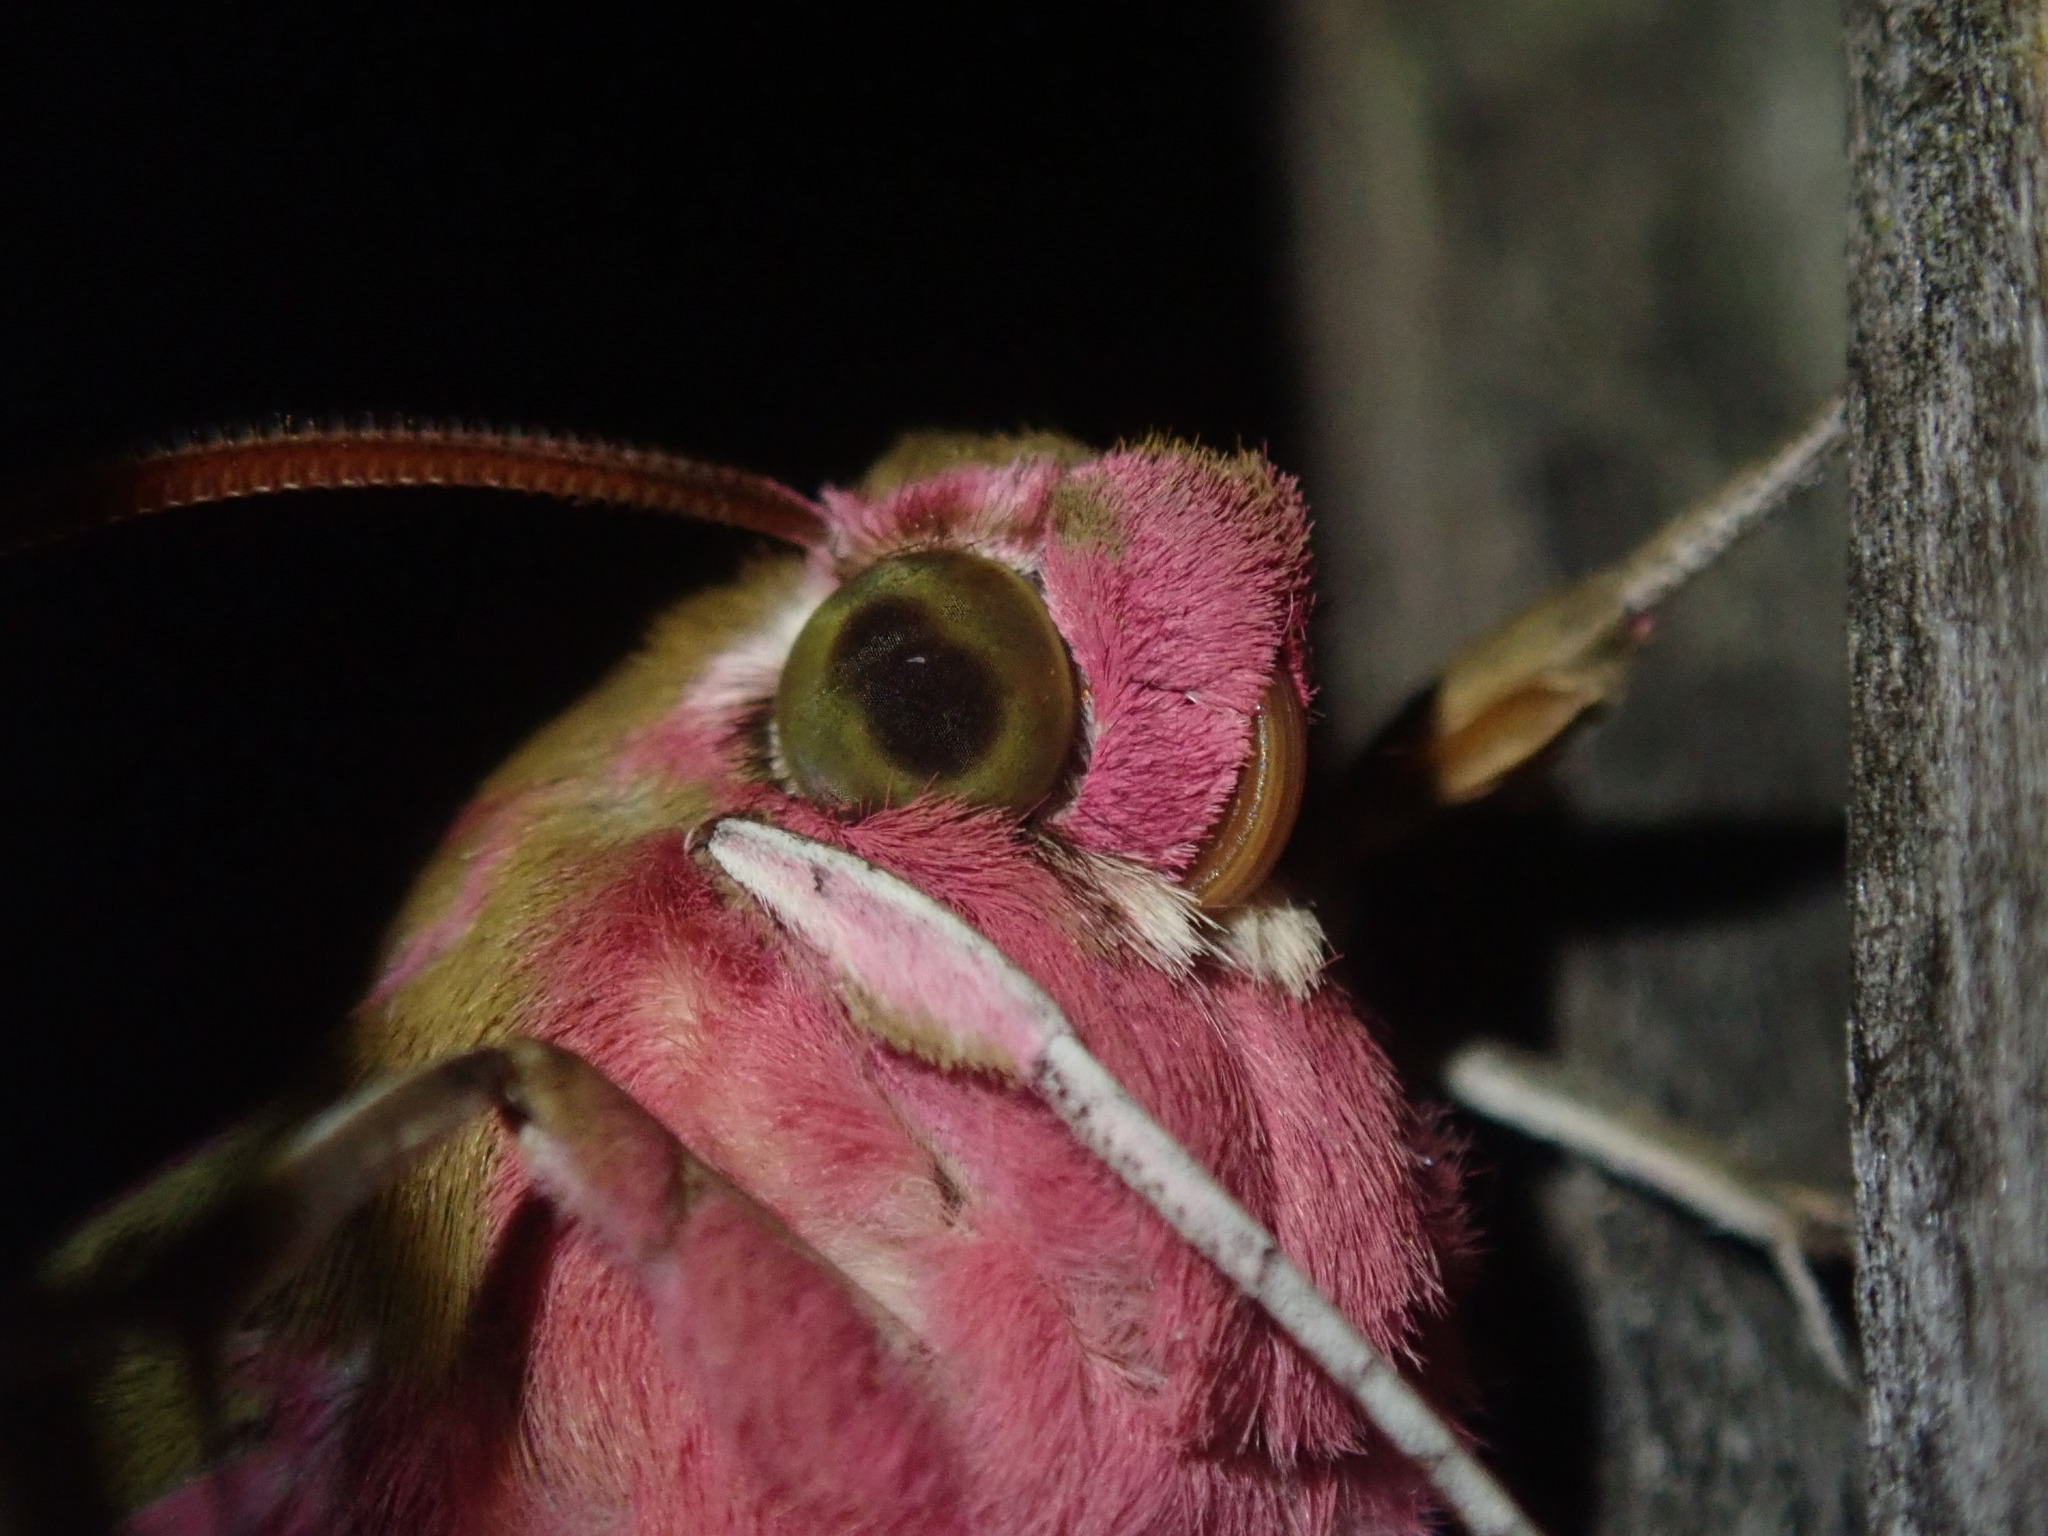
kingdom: Animalia
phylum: Arthropoda
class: Insecta
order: Lepidoptera
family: Sphingidae
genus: Deilephila
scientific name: Deilephila elpenor
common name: Elephant hawk-moth
